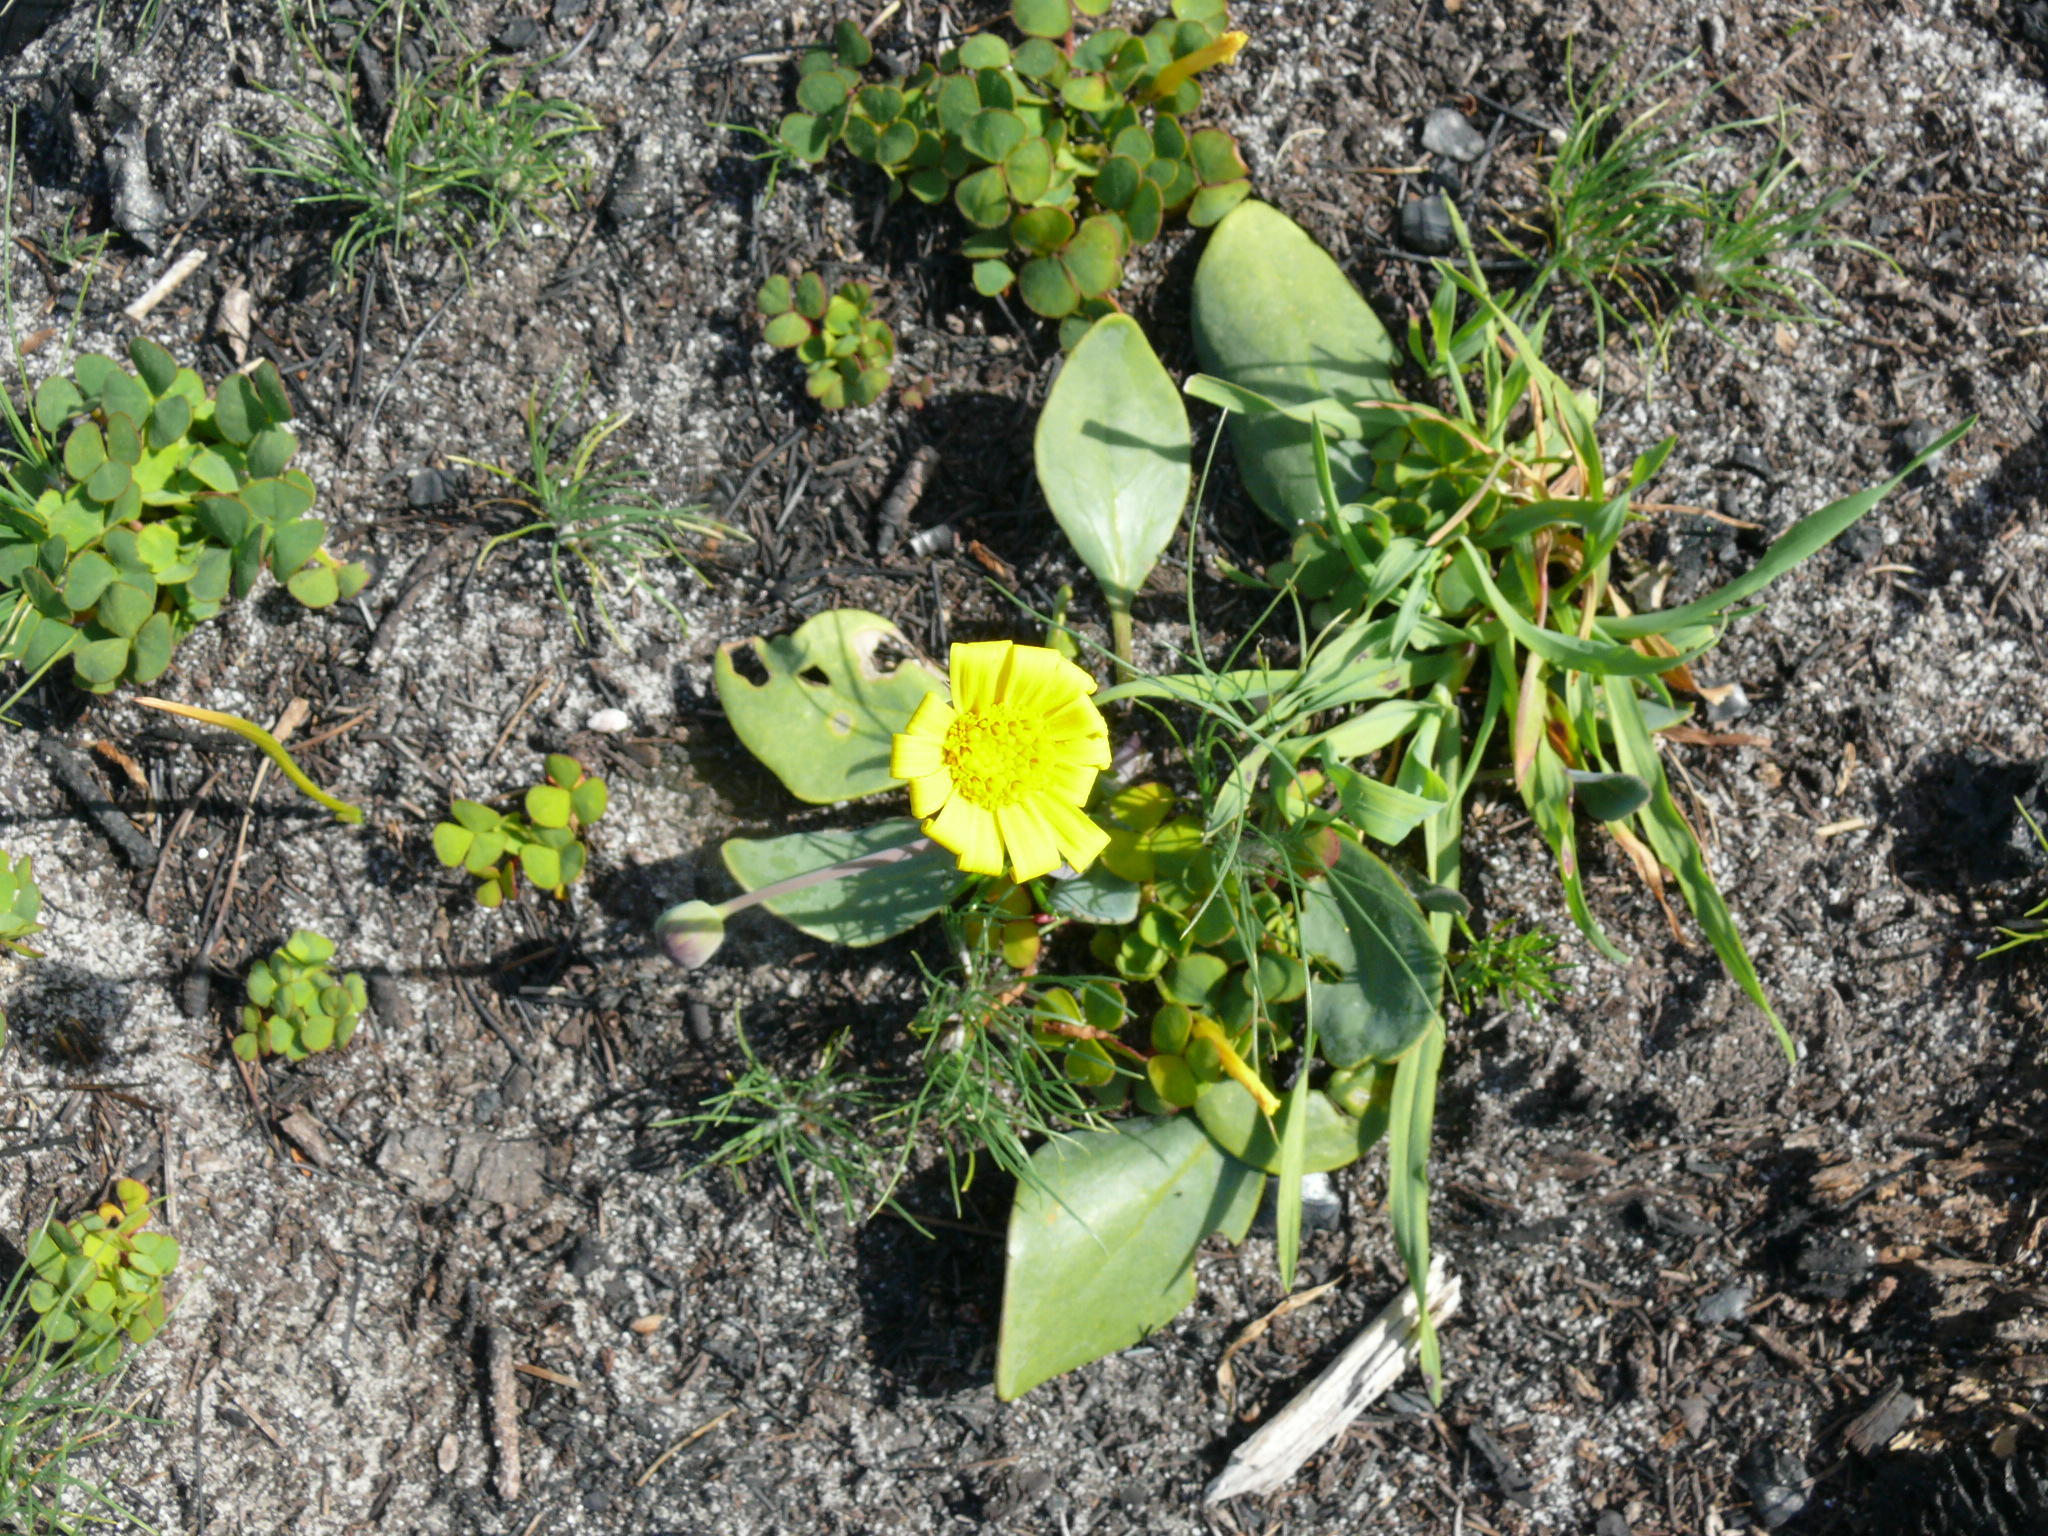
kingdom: Plantae
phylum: Tracheophyta
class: Magnoliopsida
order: Asterales
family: Asteraceae
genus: Othonna
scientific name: Othonna bulbosa
